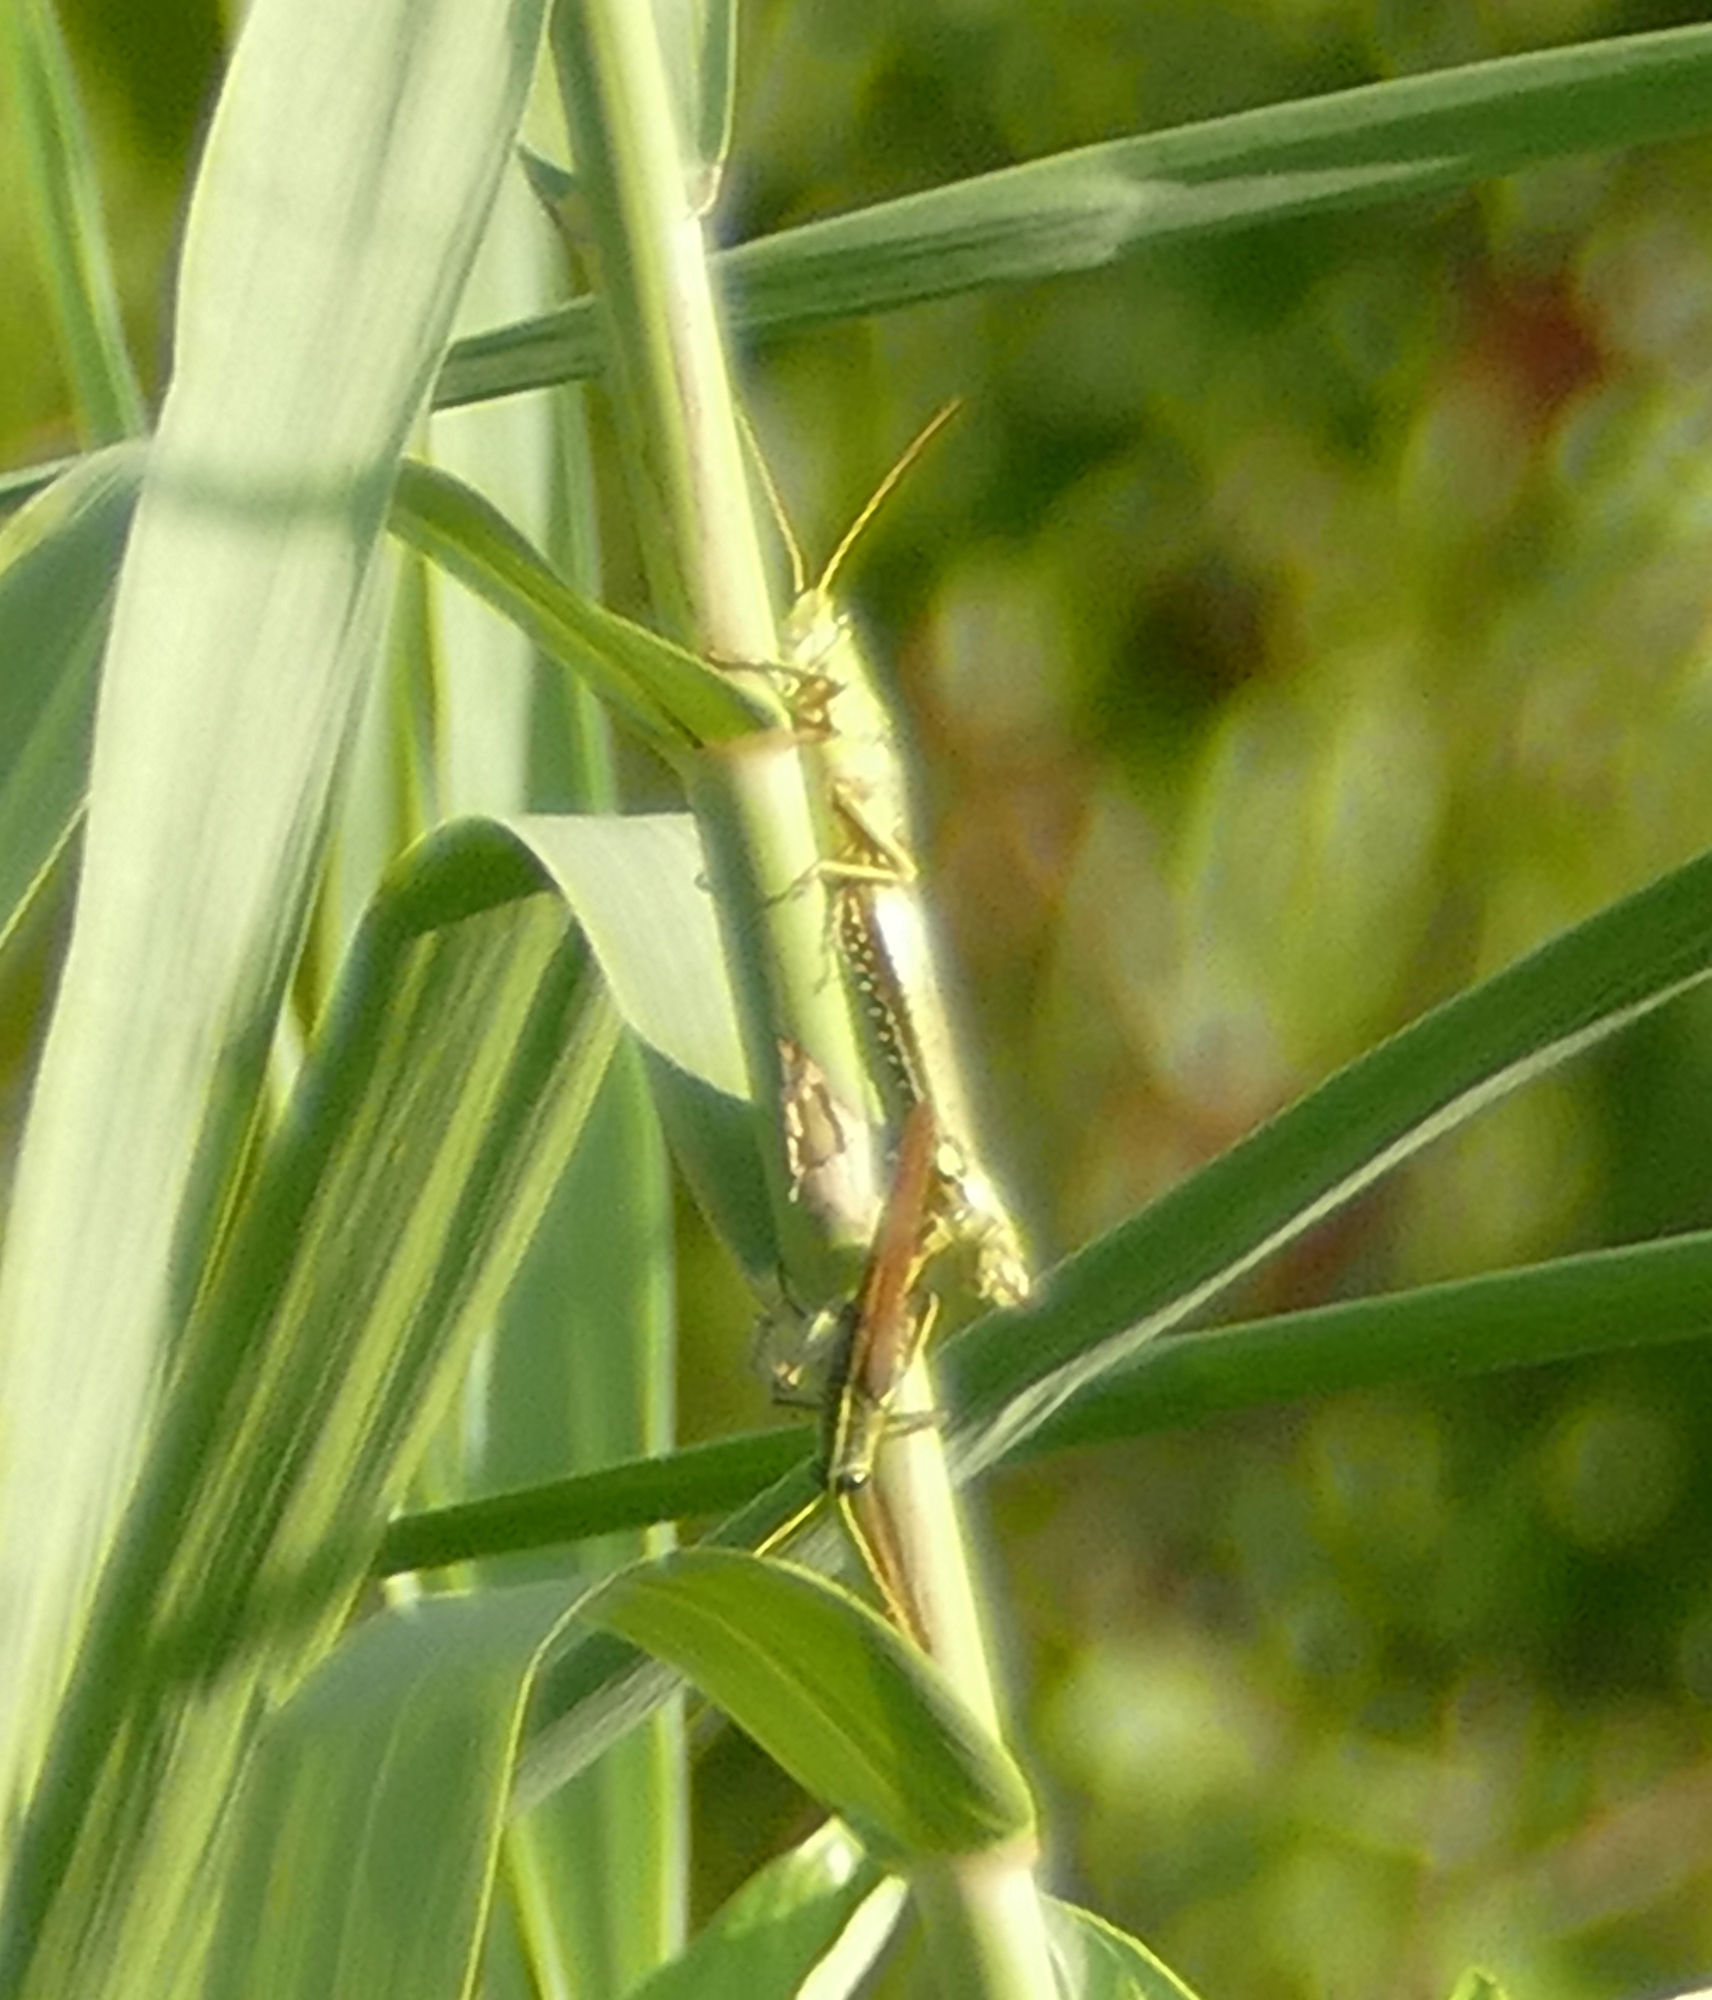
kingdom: Animalia
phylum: Arthropoda
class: Insecta
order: Orthoptera
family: Acrididae
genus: Schistocerca
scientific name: Schistocerca obscura
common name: Obscure bird grasshopper
